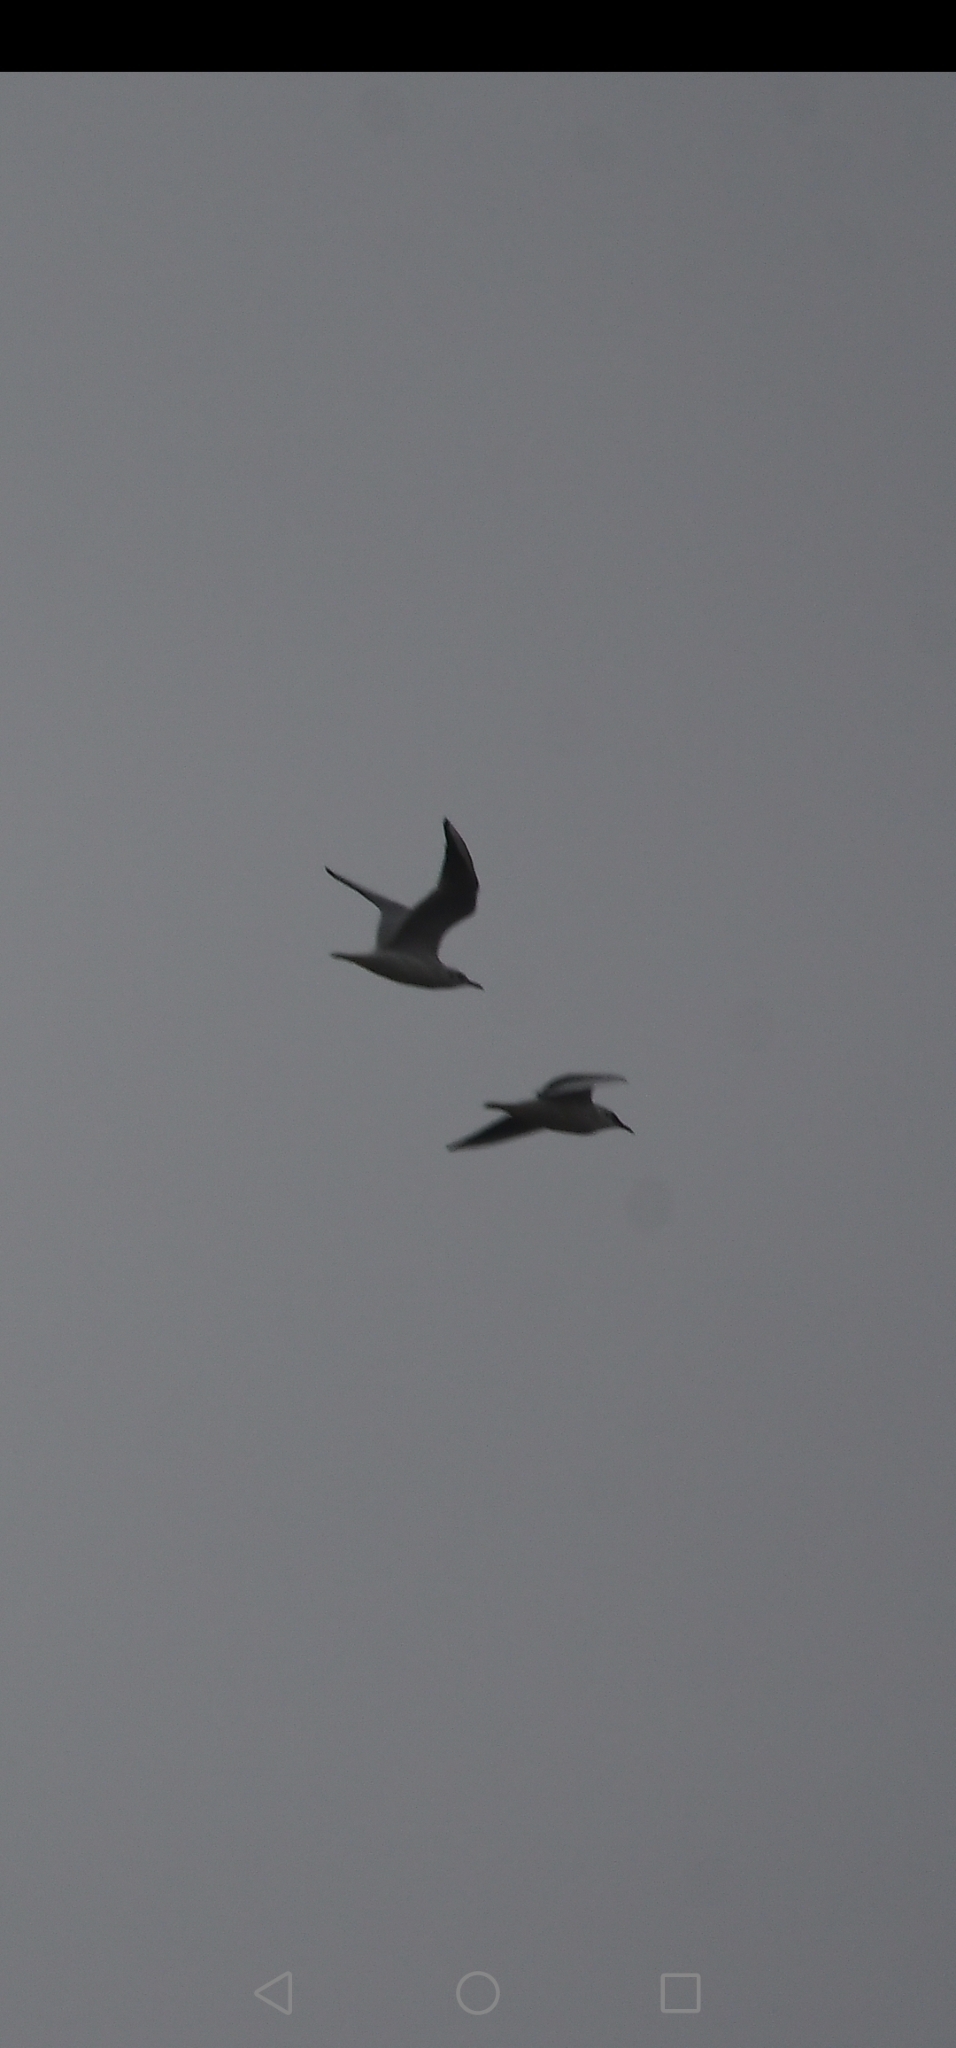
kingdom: Animalia
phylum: Chordata
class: Aves
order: Charadriiformes
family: Laridae
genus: Chroicocephalus
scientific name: Chroicocephalus ridibundus
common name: Black-headed gull
